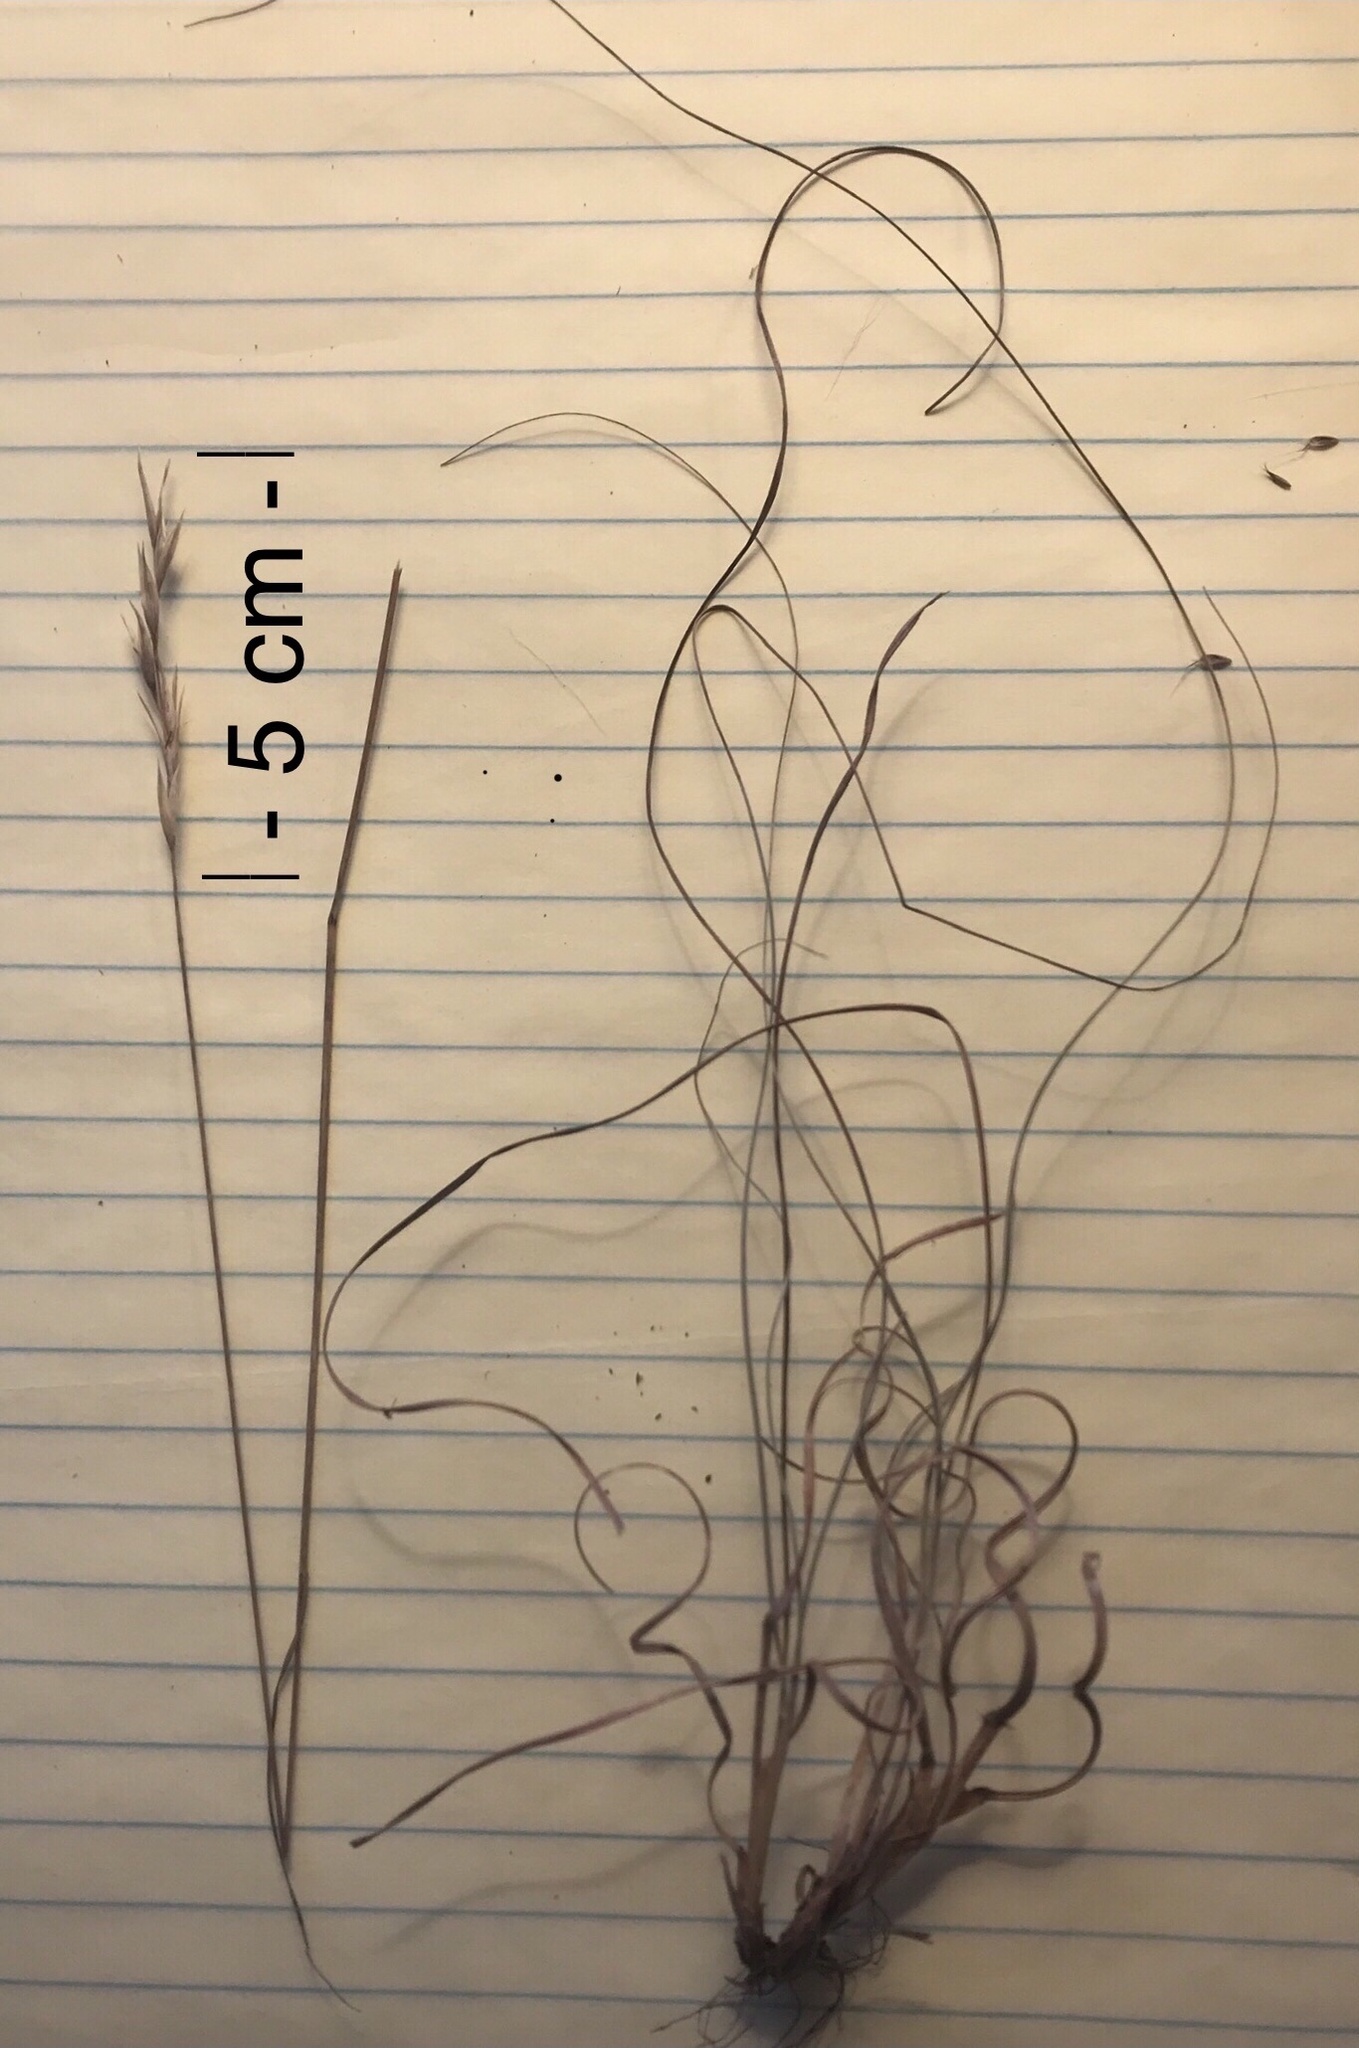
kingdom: Plantae
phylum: Tracheophyta
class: Liliopsida
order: Poales
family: Poaceae
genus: Danthonia
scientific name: Danthonia spicata
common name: Common wild oatgrass
